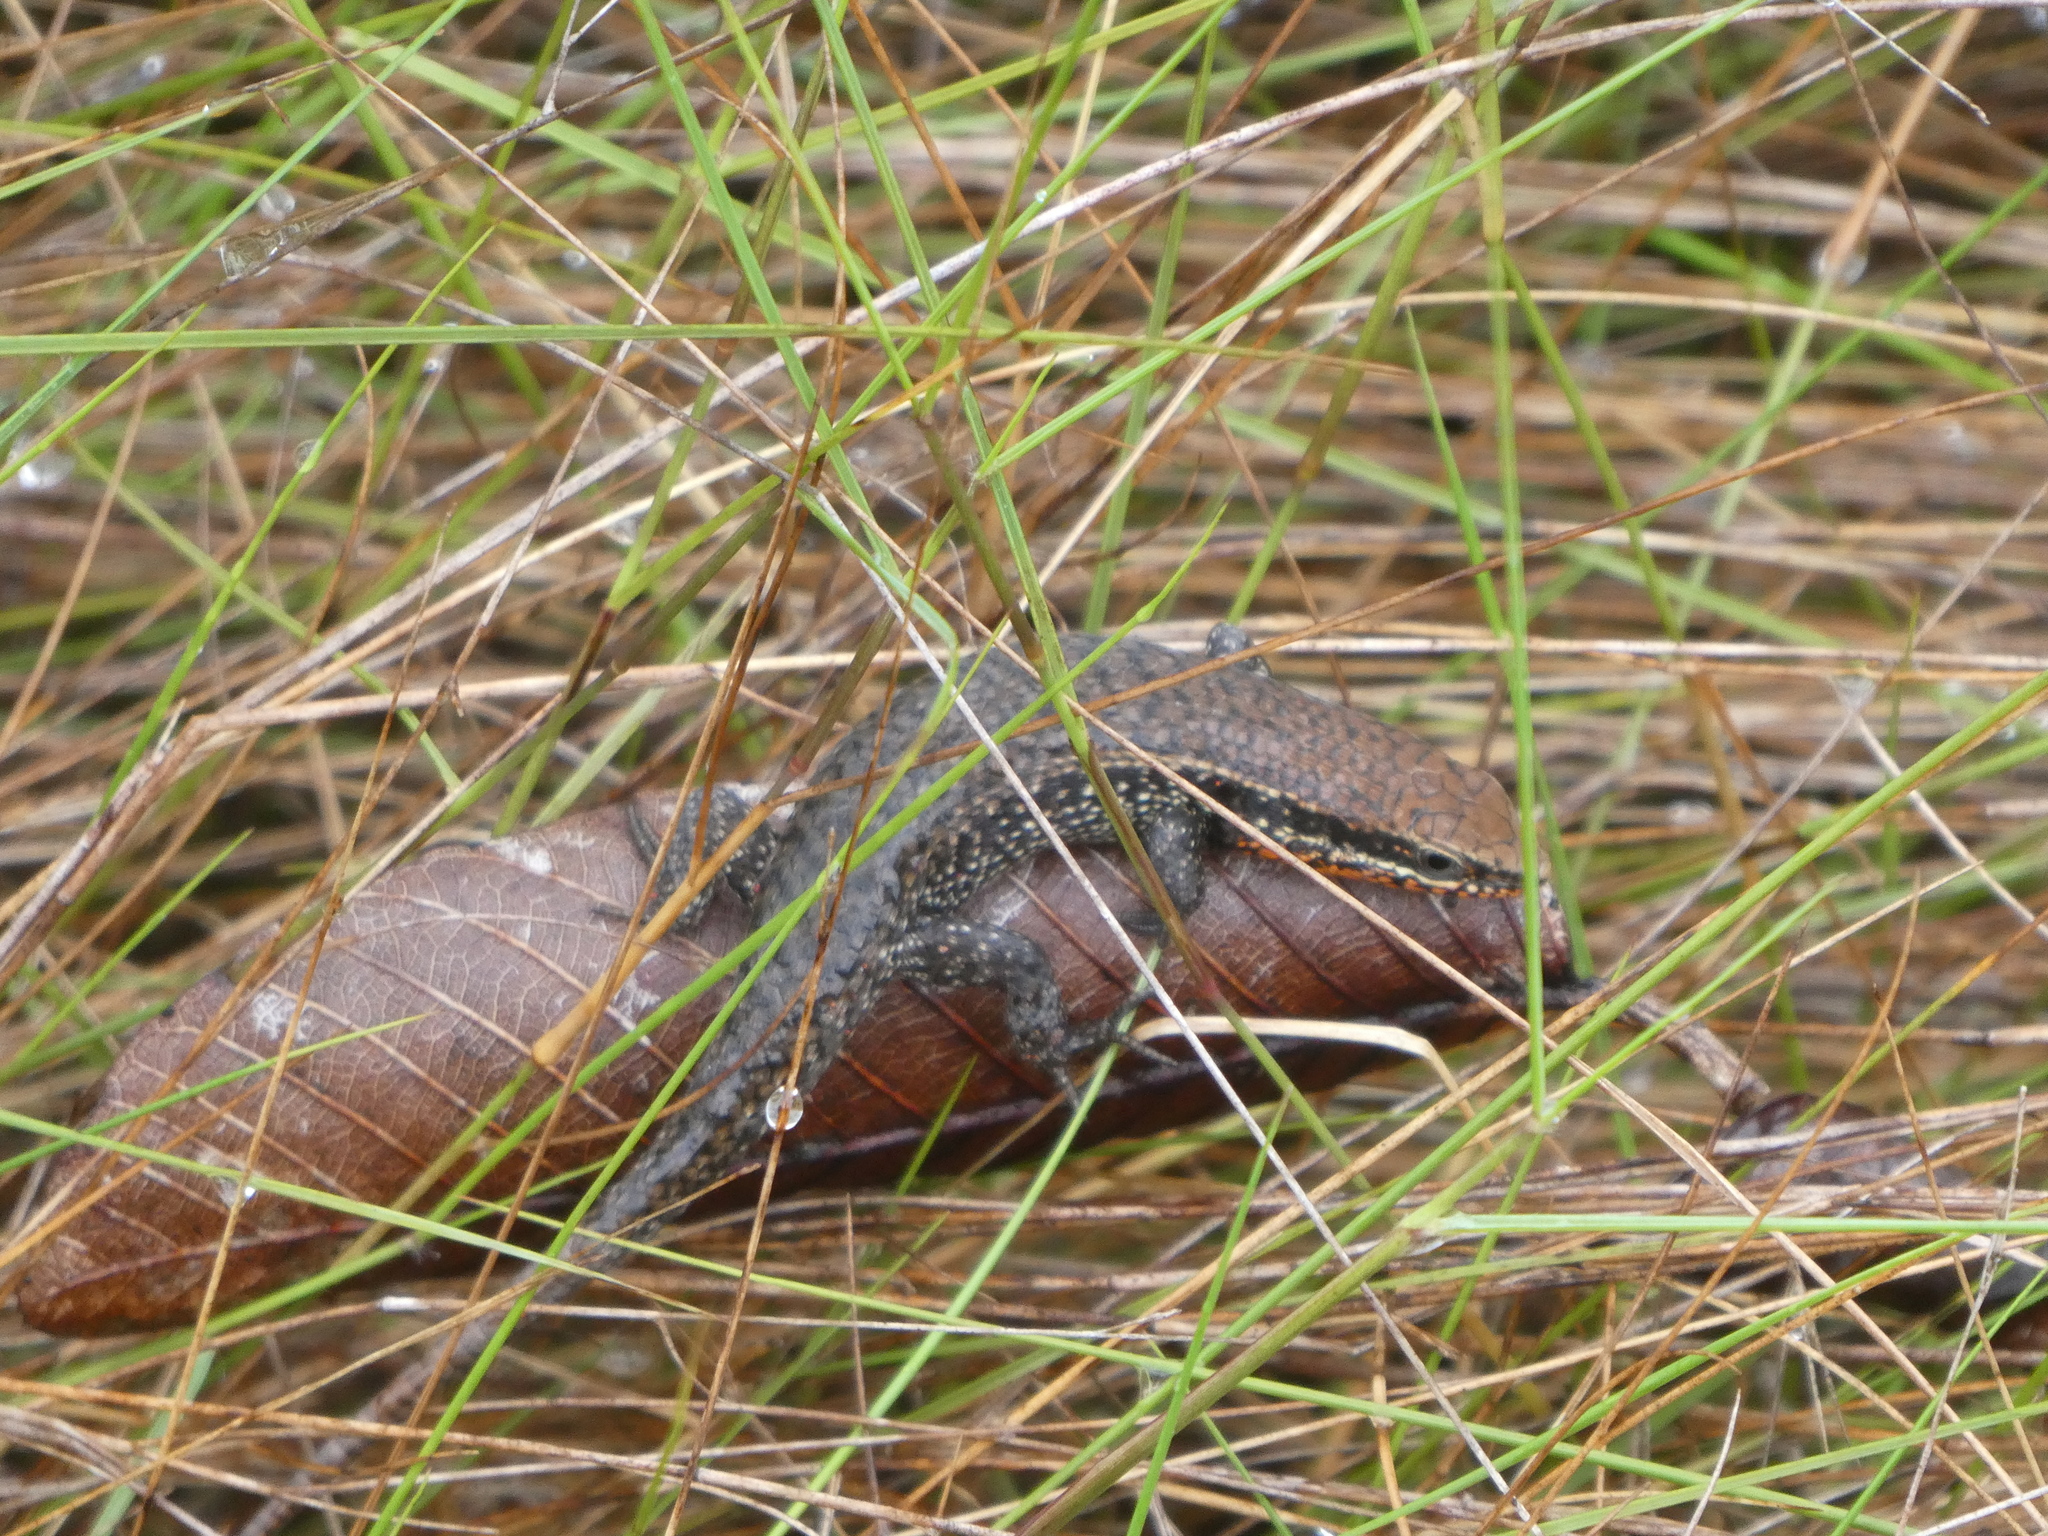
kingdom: Animalia
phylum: Chordata
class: Squamata
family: Scincidae
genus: Eutropis
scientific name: Eutropis macularia
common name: Bronze mabuya
